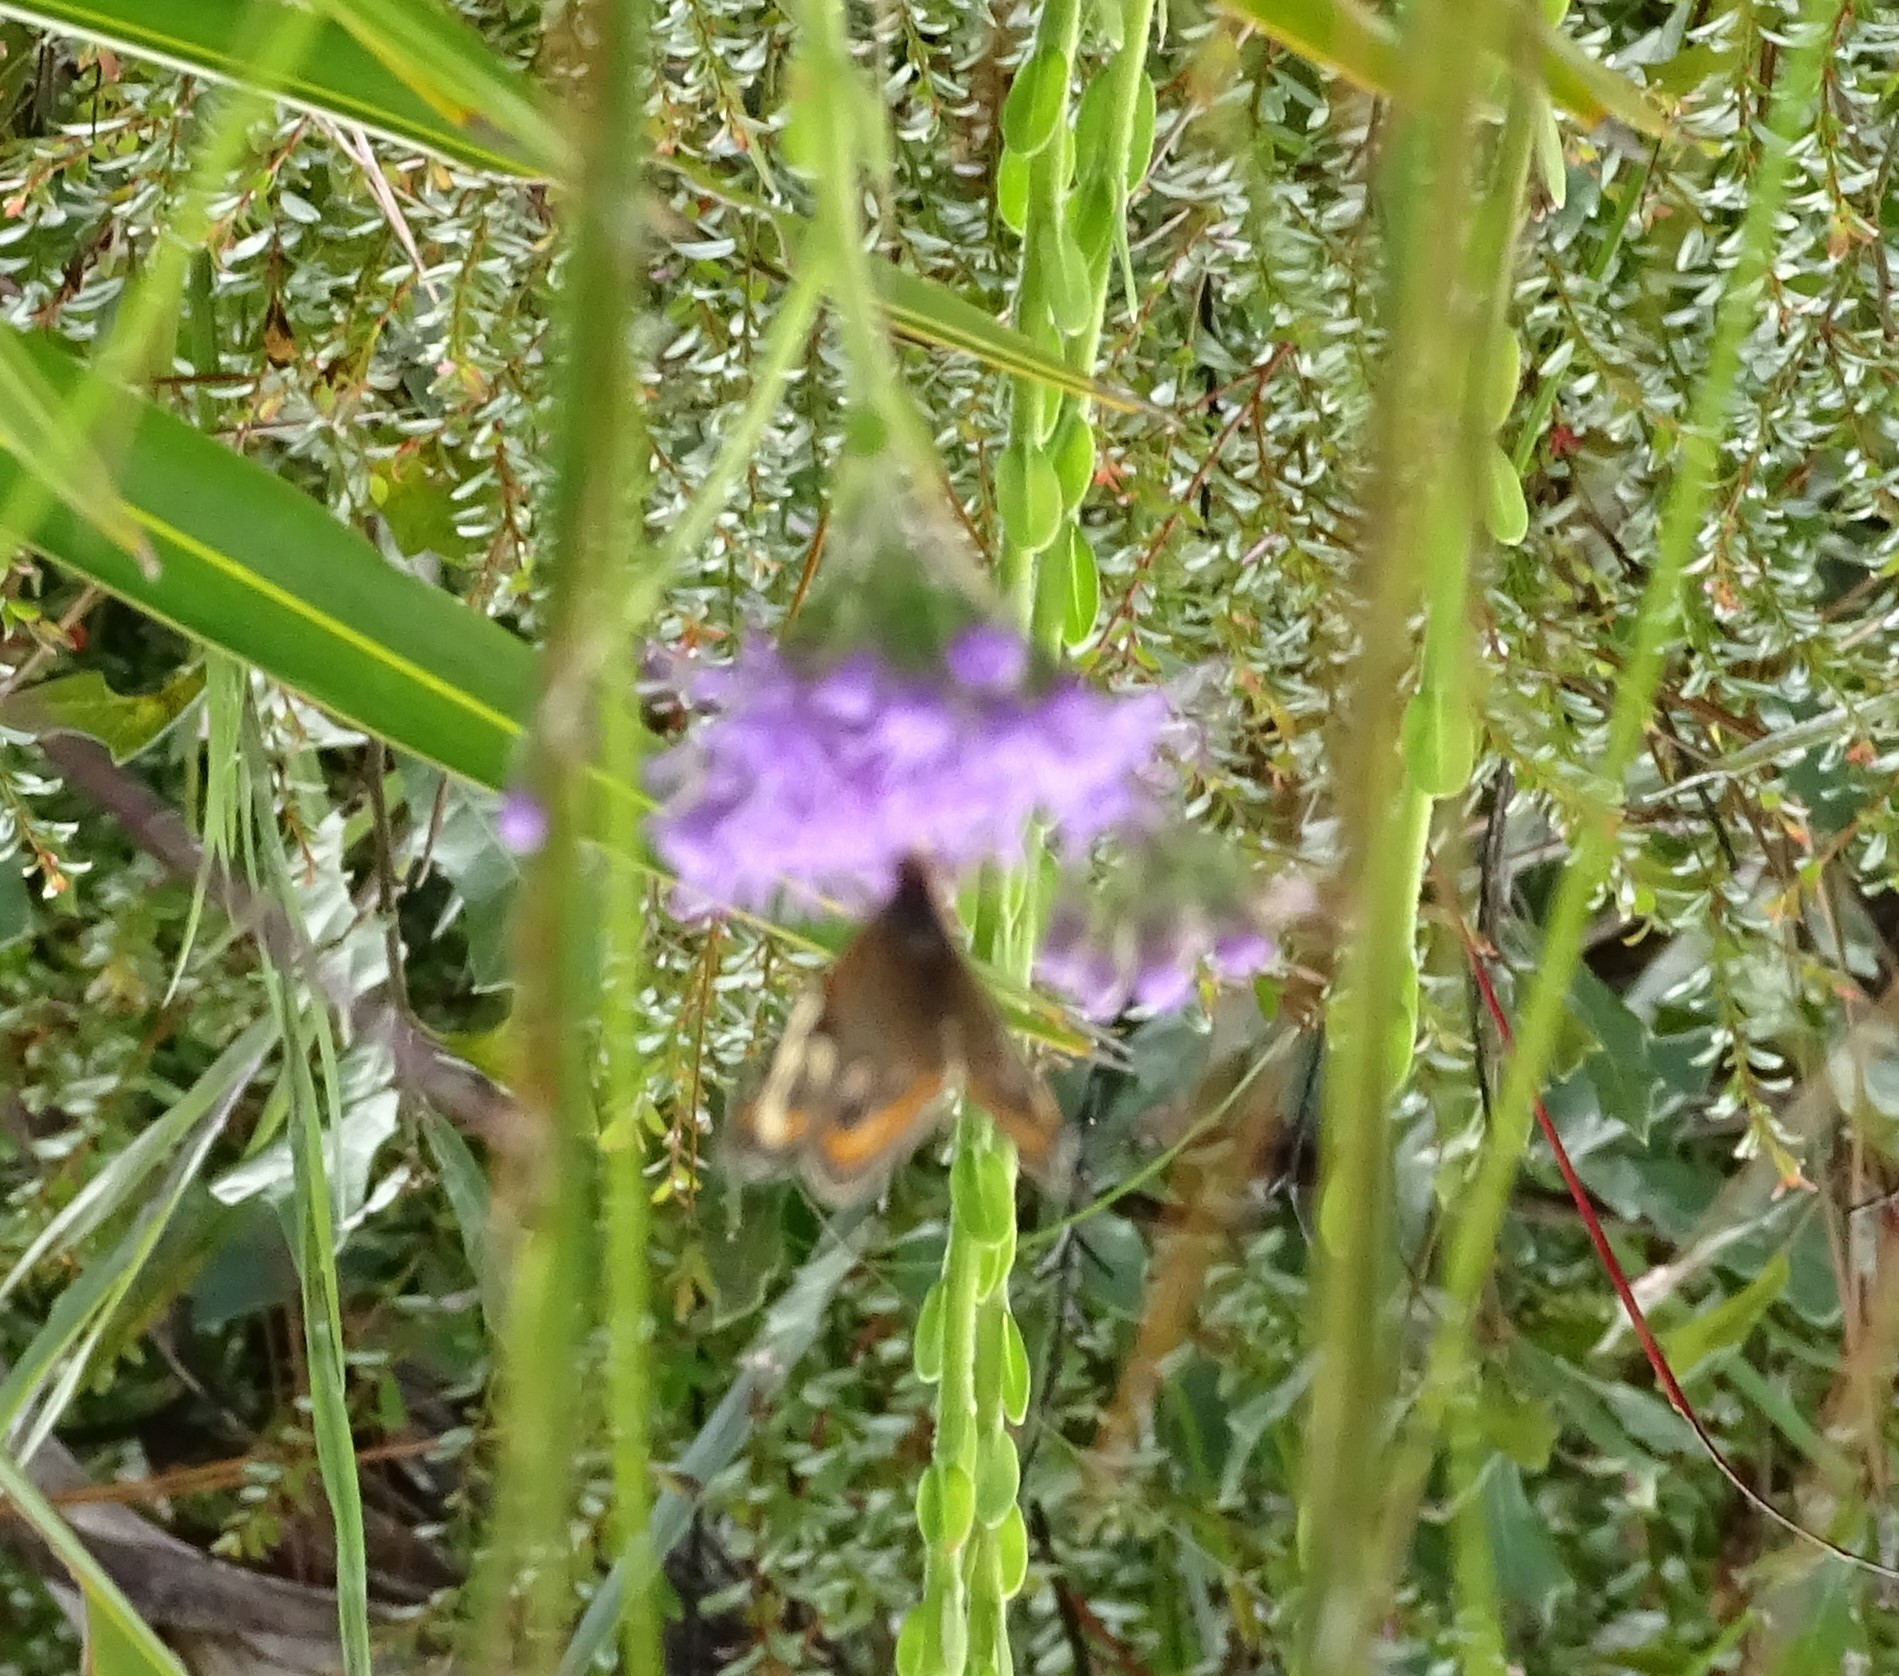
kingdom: Animalia
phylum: Arthropoda
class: Insecta
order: Lepidoptera
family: Nymphalidae
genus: Junonia
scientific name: Junonia coenia
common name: Common buckeye
